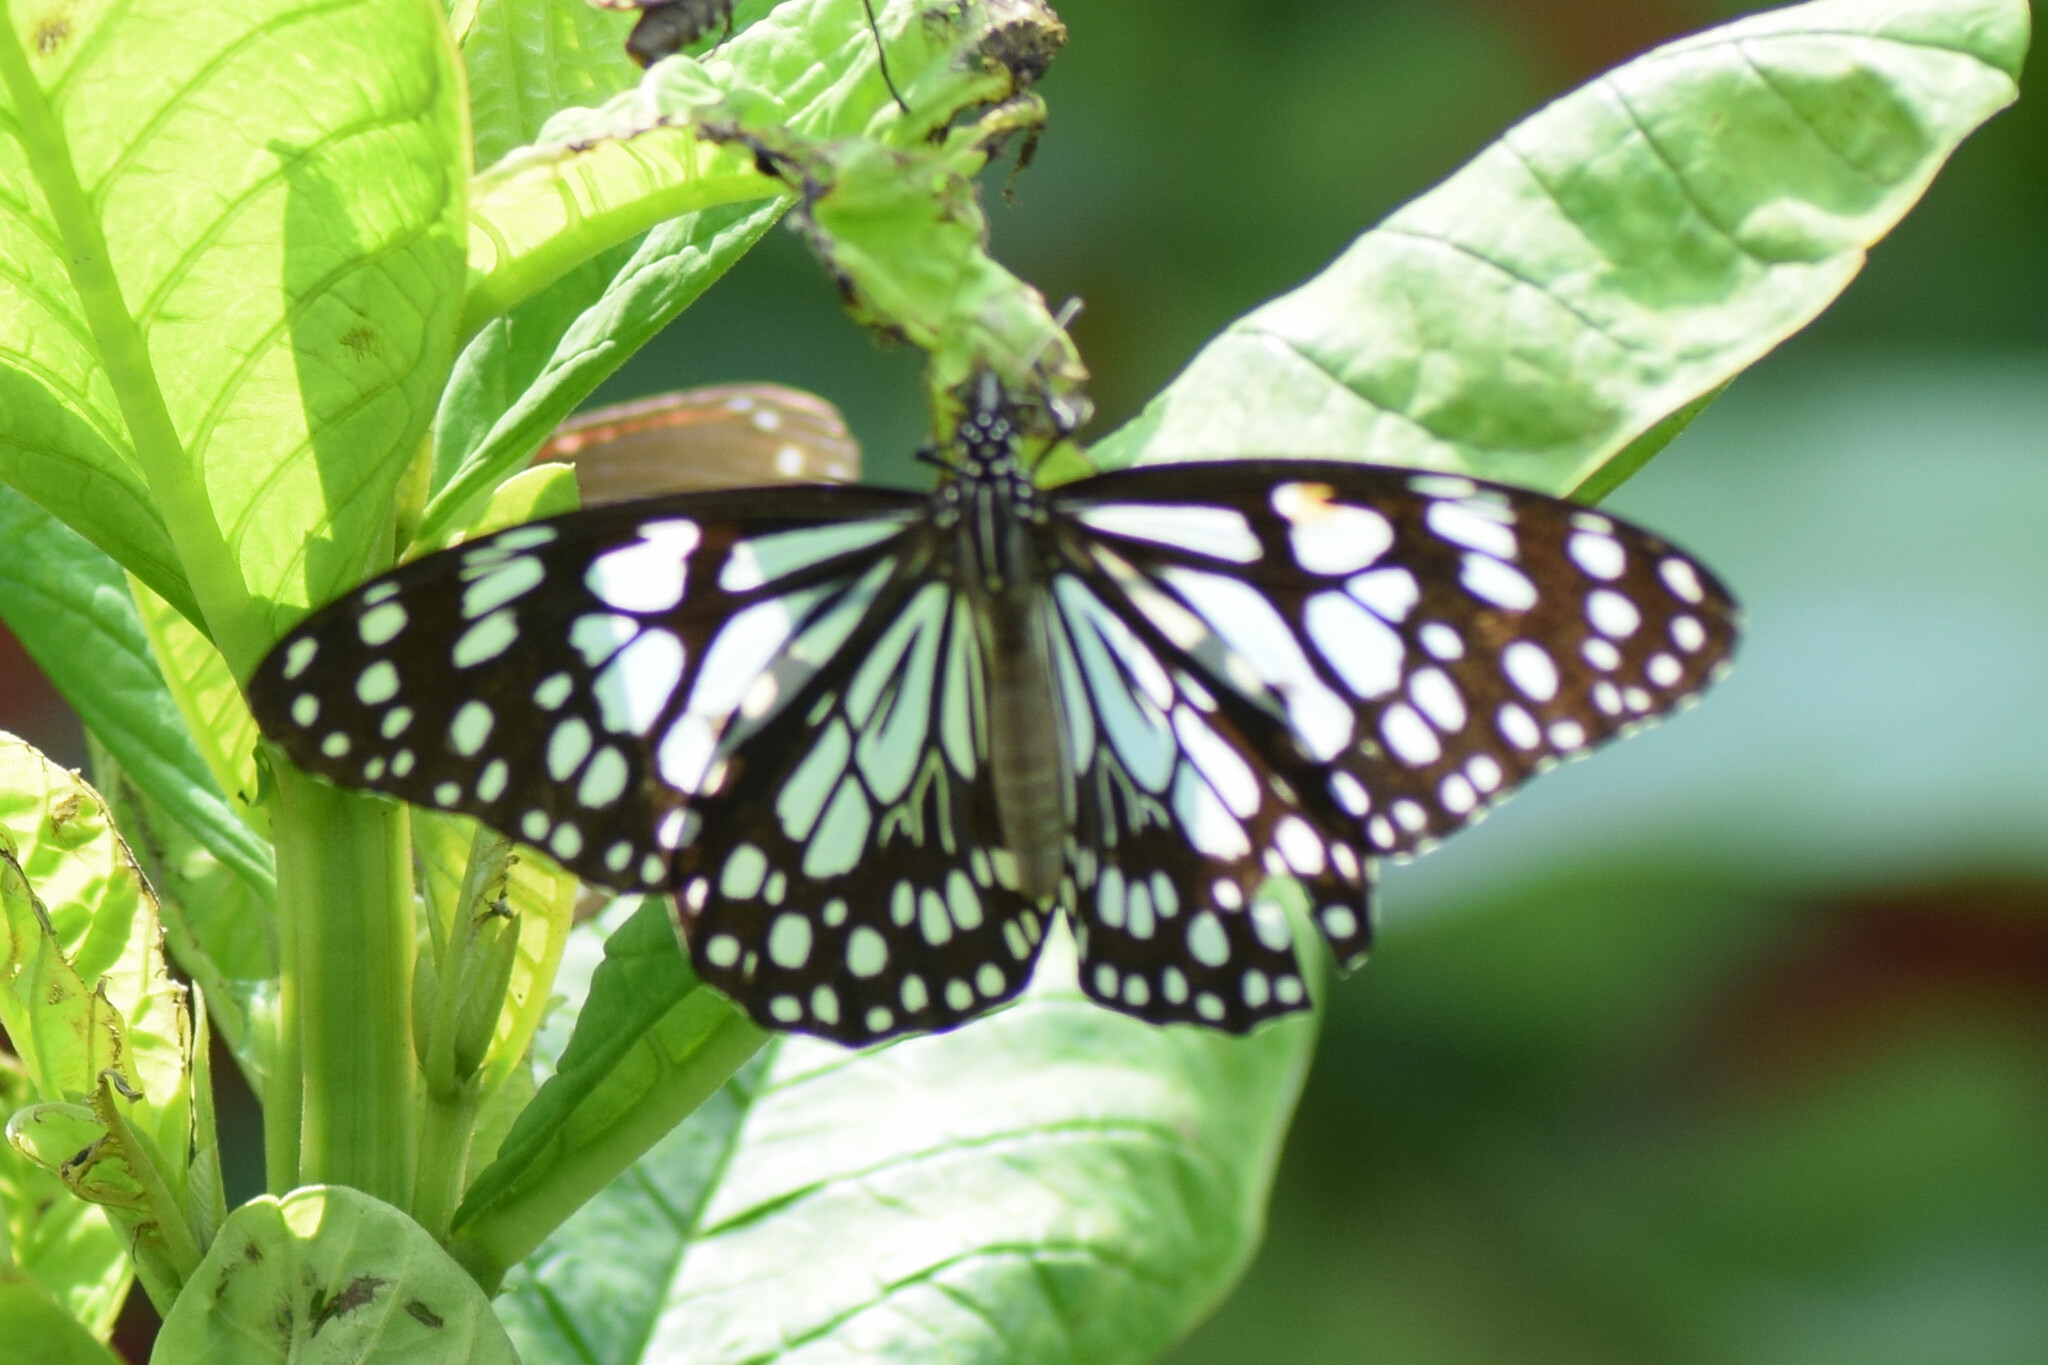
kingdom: Animalia
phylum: Arthropoda
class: Insecta
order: Lepidoptera
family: Nymphalidae
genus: Tirumala
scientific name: Tirumala limniace
